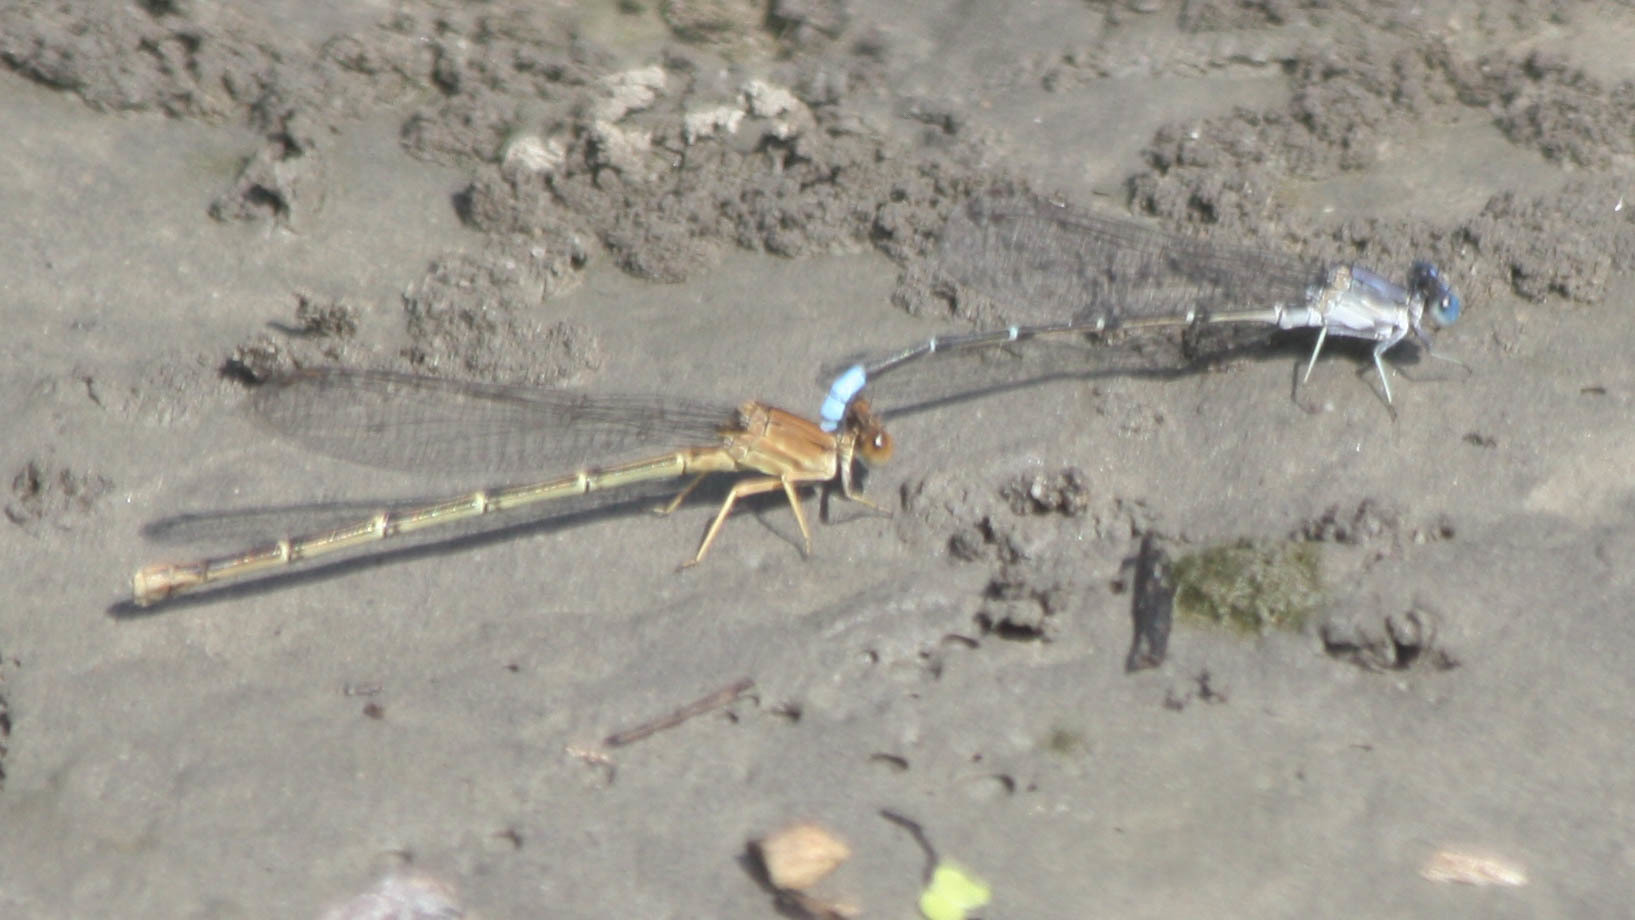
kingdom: Animalia
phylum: Arthropoda
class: Insecta
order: Odonata
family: Coenagrionidae
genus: Argia
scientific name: Argia apicalis
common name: Blue-fronted dancer
